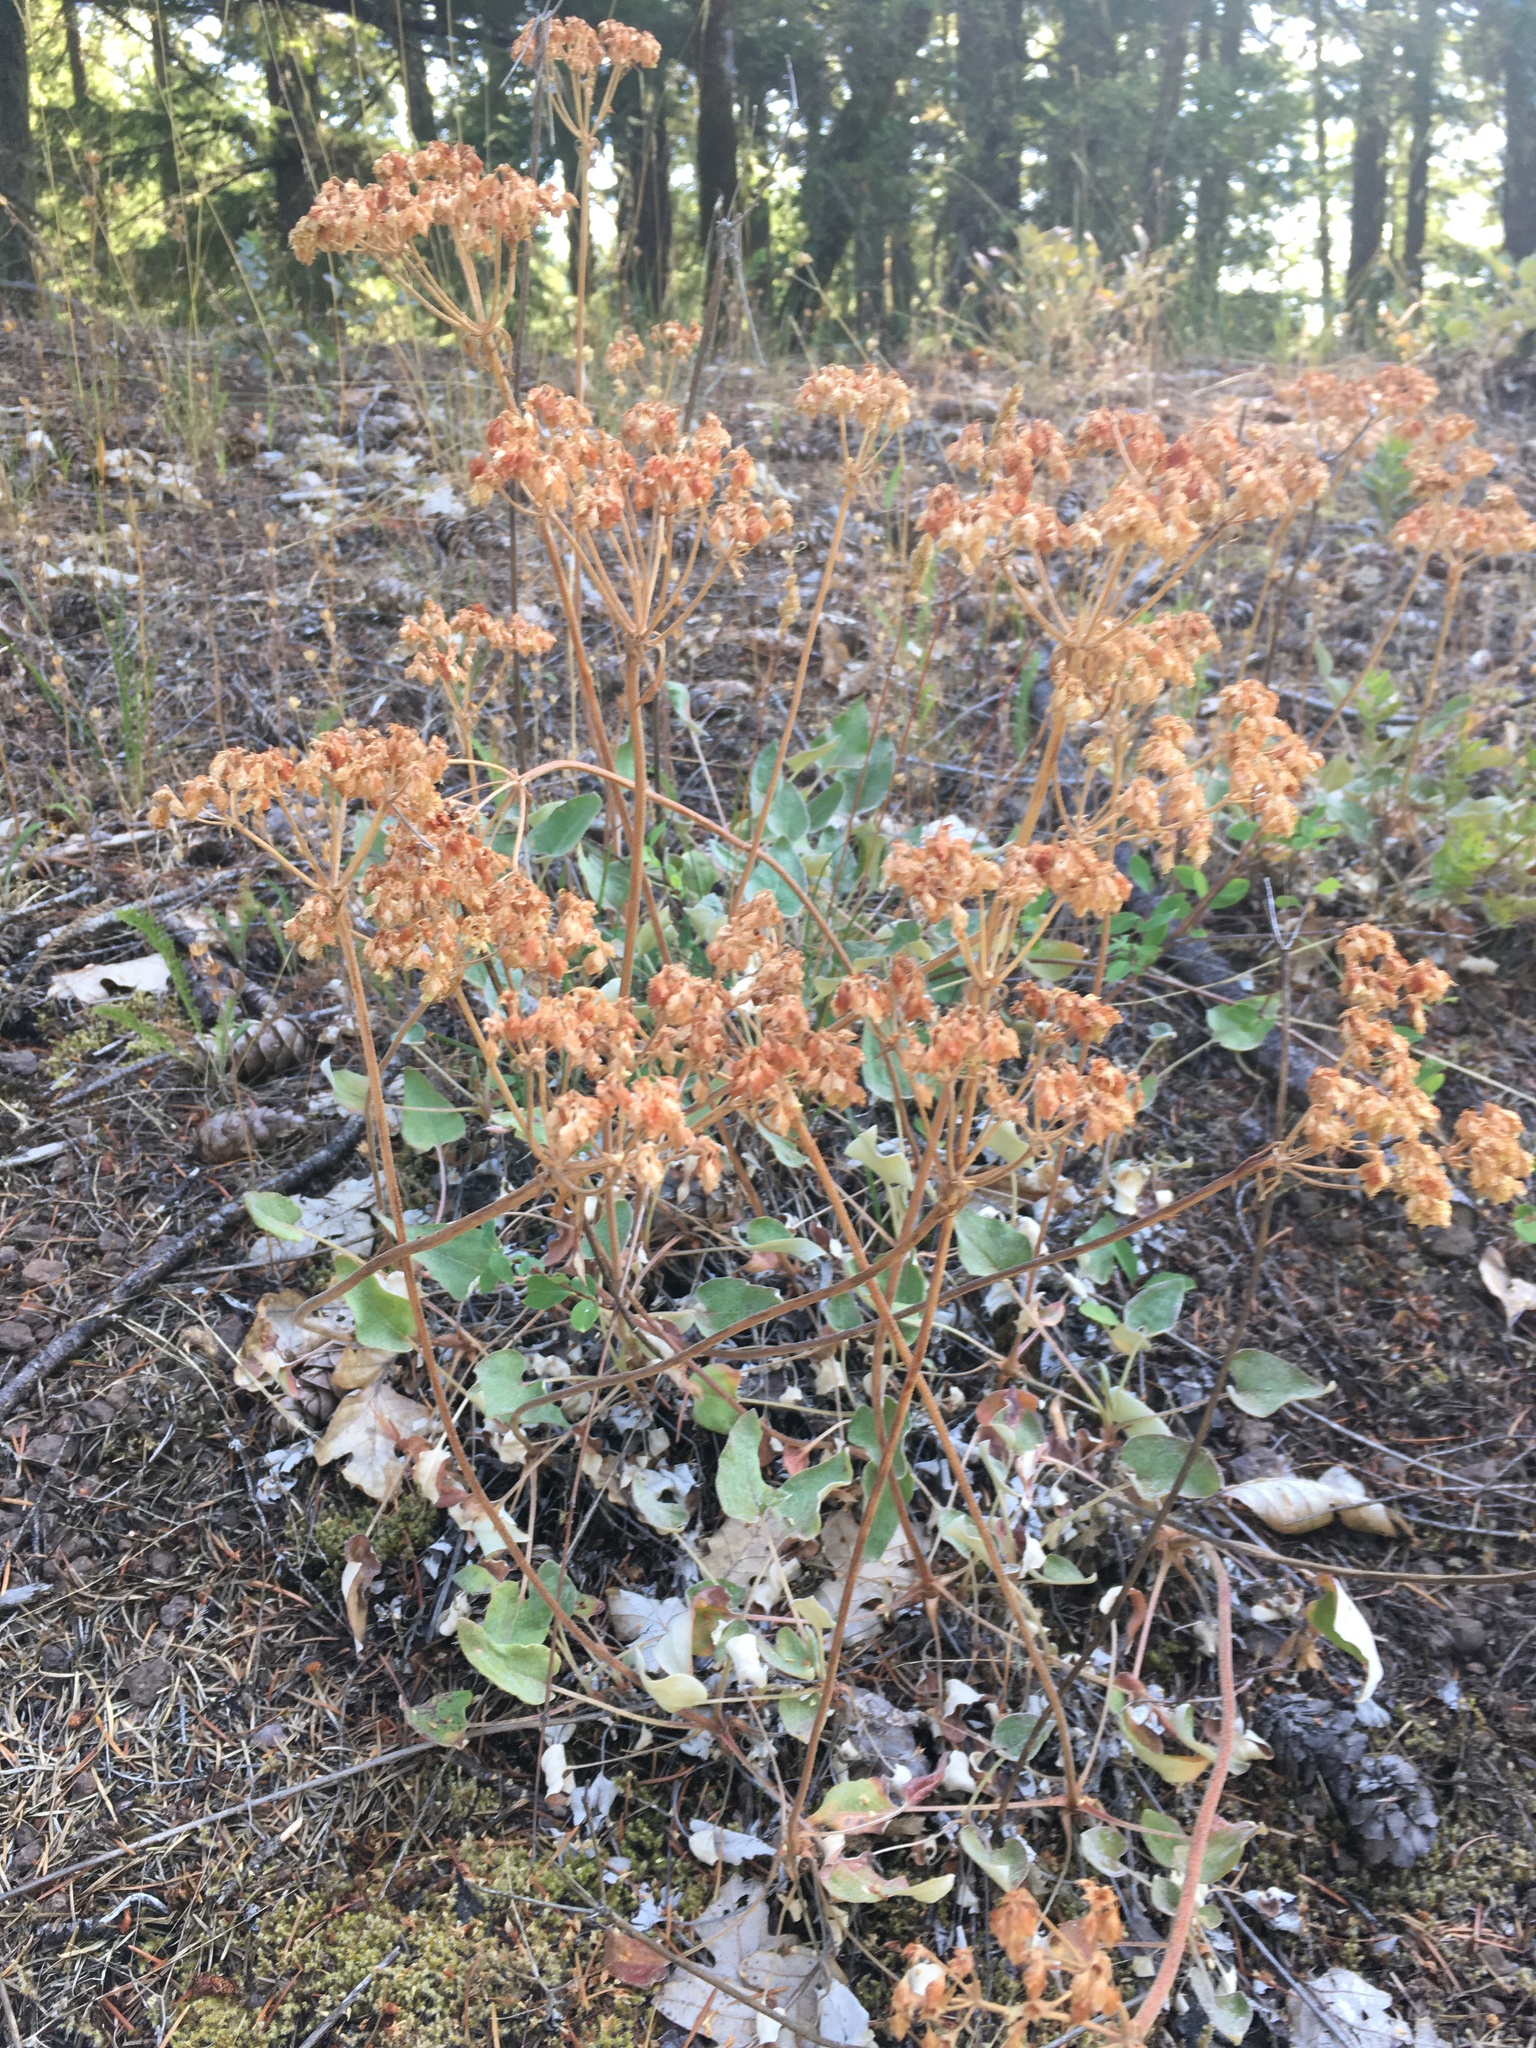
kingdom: Plantae
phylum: Tracheophyta
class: Magnoliopsida
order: Caryophyllales
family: Polygonaceae
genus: Eriogonum
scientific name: Eriogonum compositum
